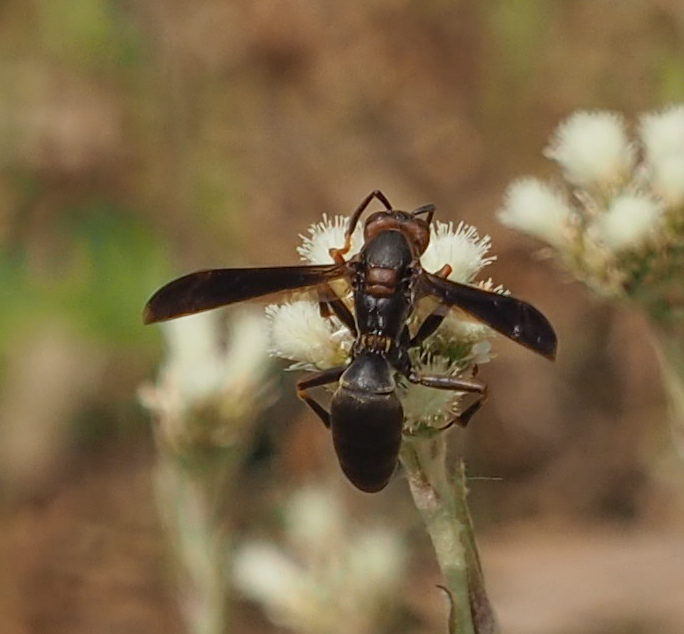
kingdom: Animalia
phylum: Arthropoda
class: Insecta
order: Hymenoptera
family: Eumenidae
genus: Polistes
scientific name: Polistes metricus
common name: Metric paper wasp
